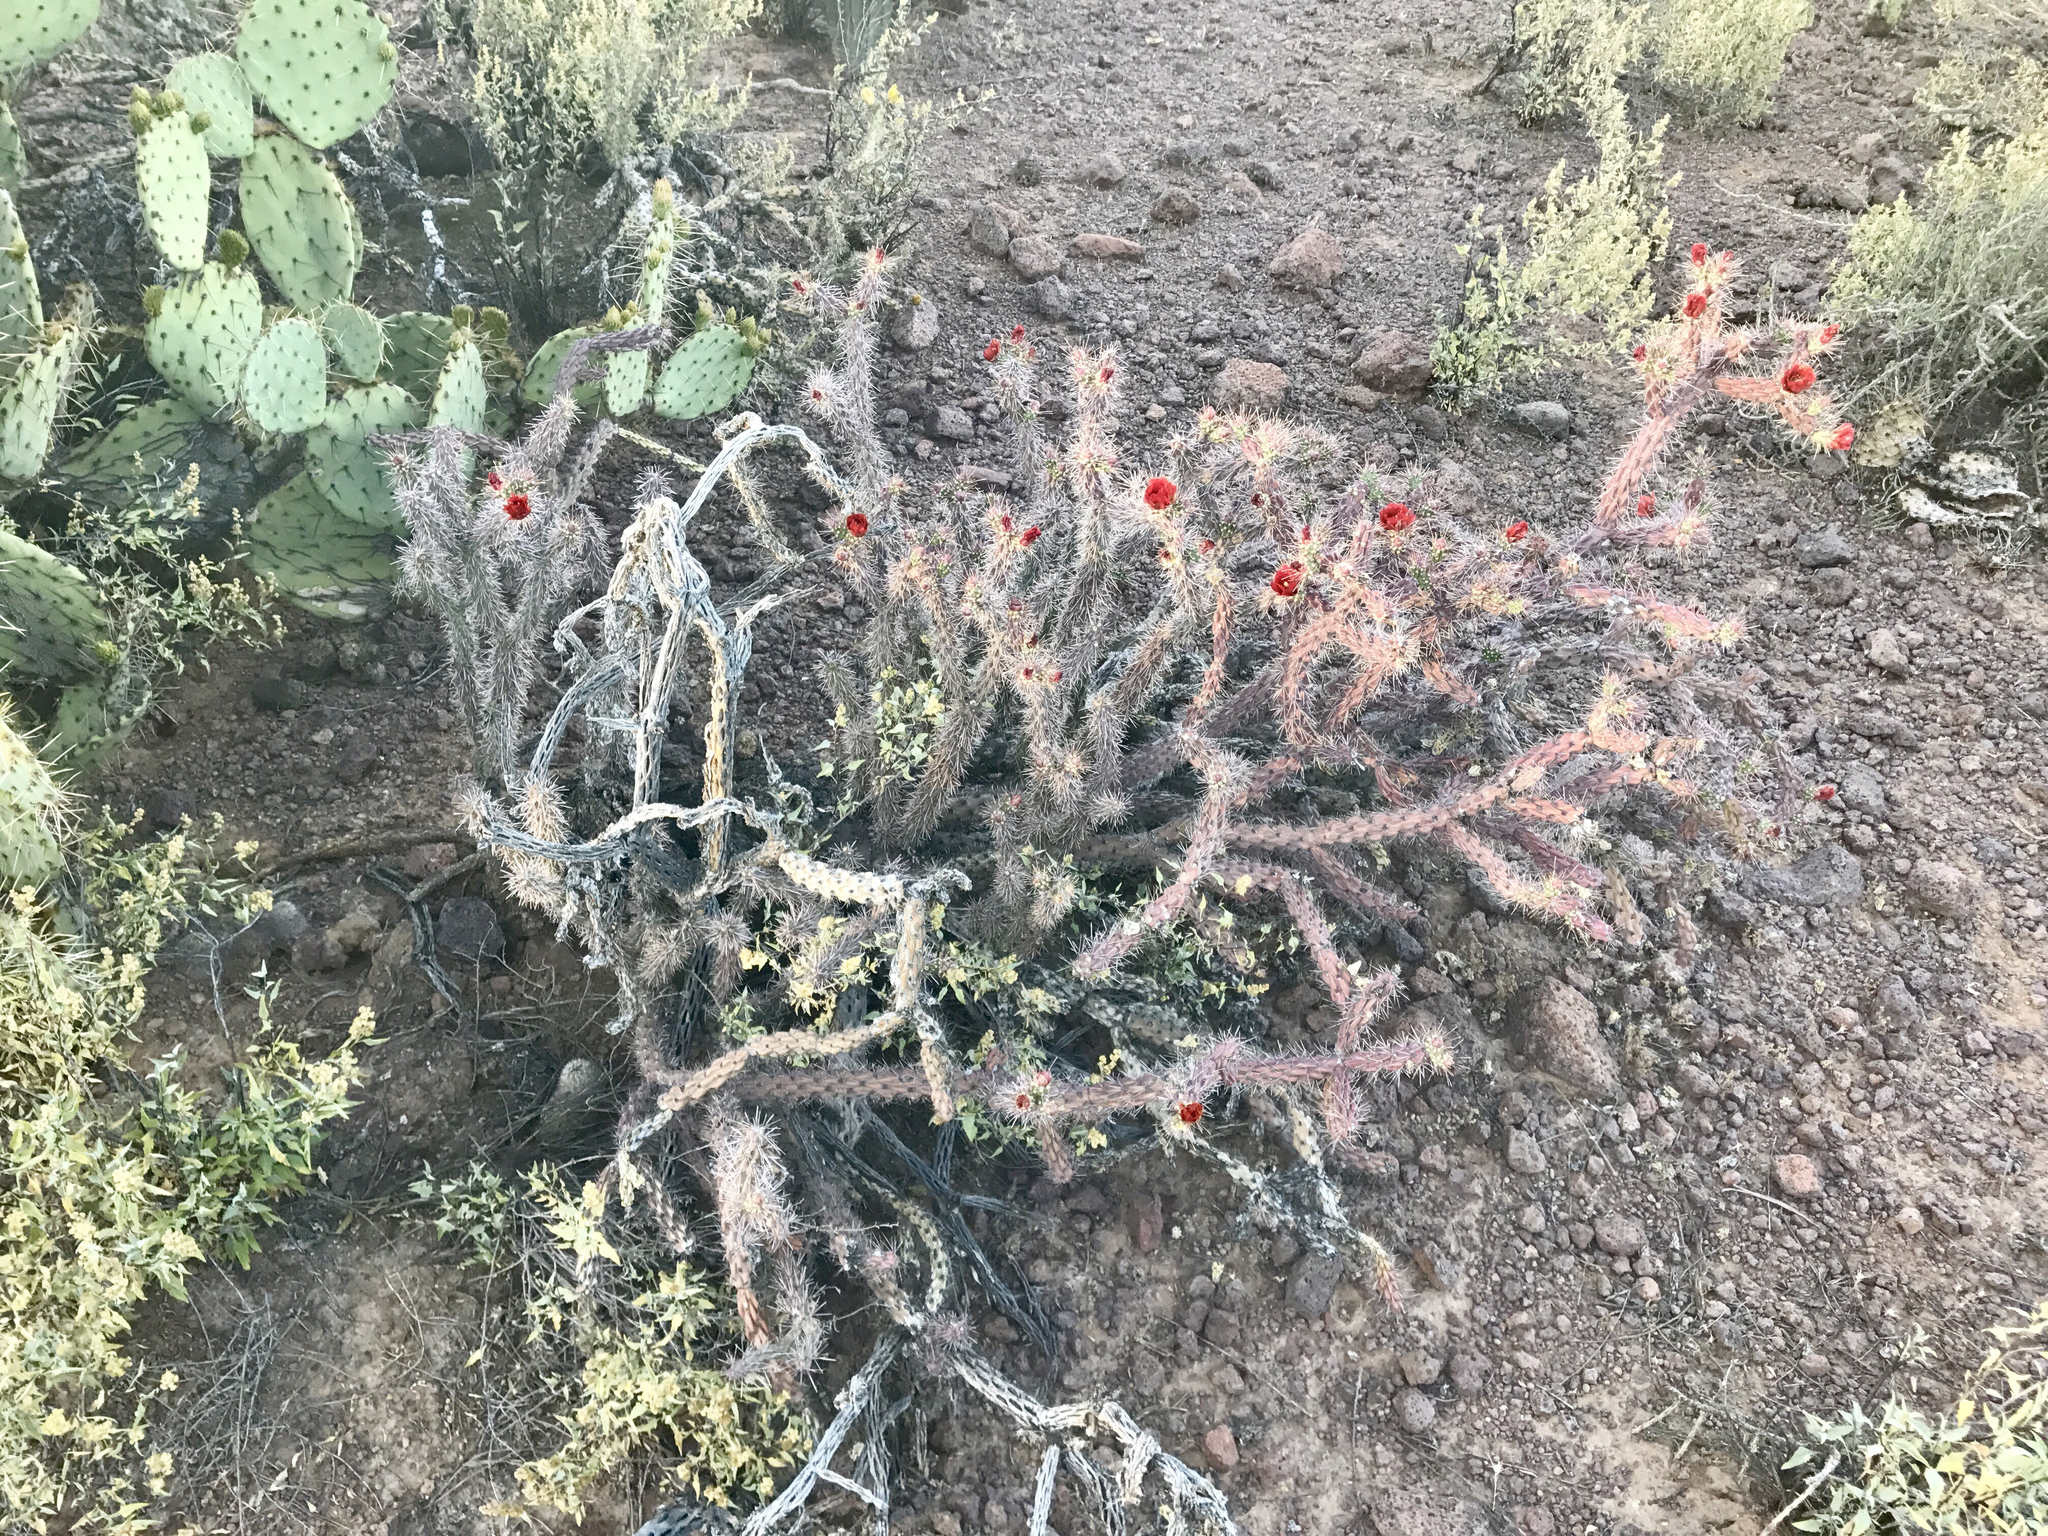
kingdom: Plantae
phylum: Tracheophyta
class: Magnoliopsida
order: Caryophyllales
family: Cactaceae
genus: Cylindropuntia
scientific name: Cylindropuntia thurberi
